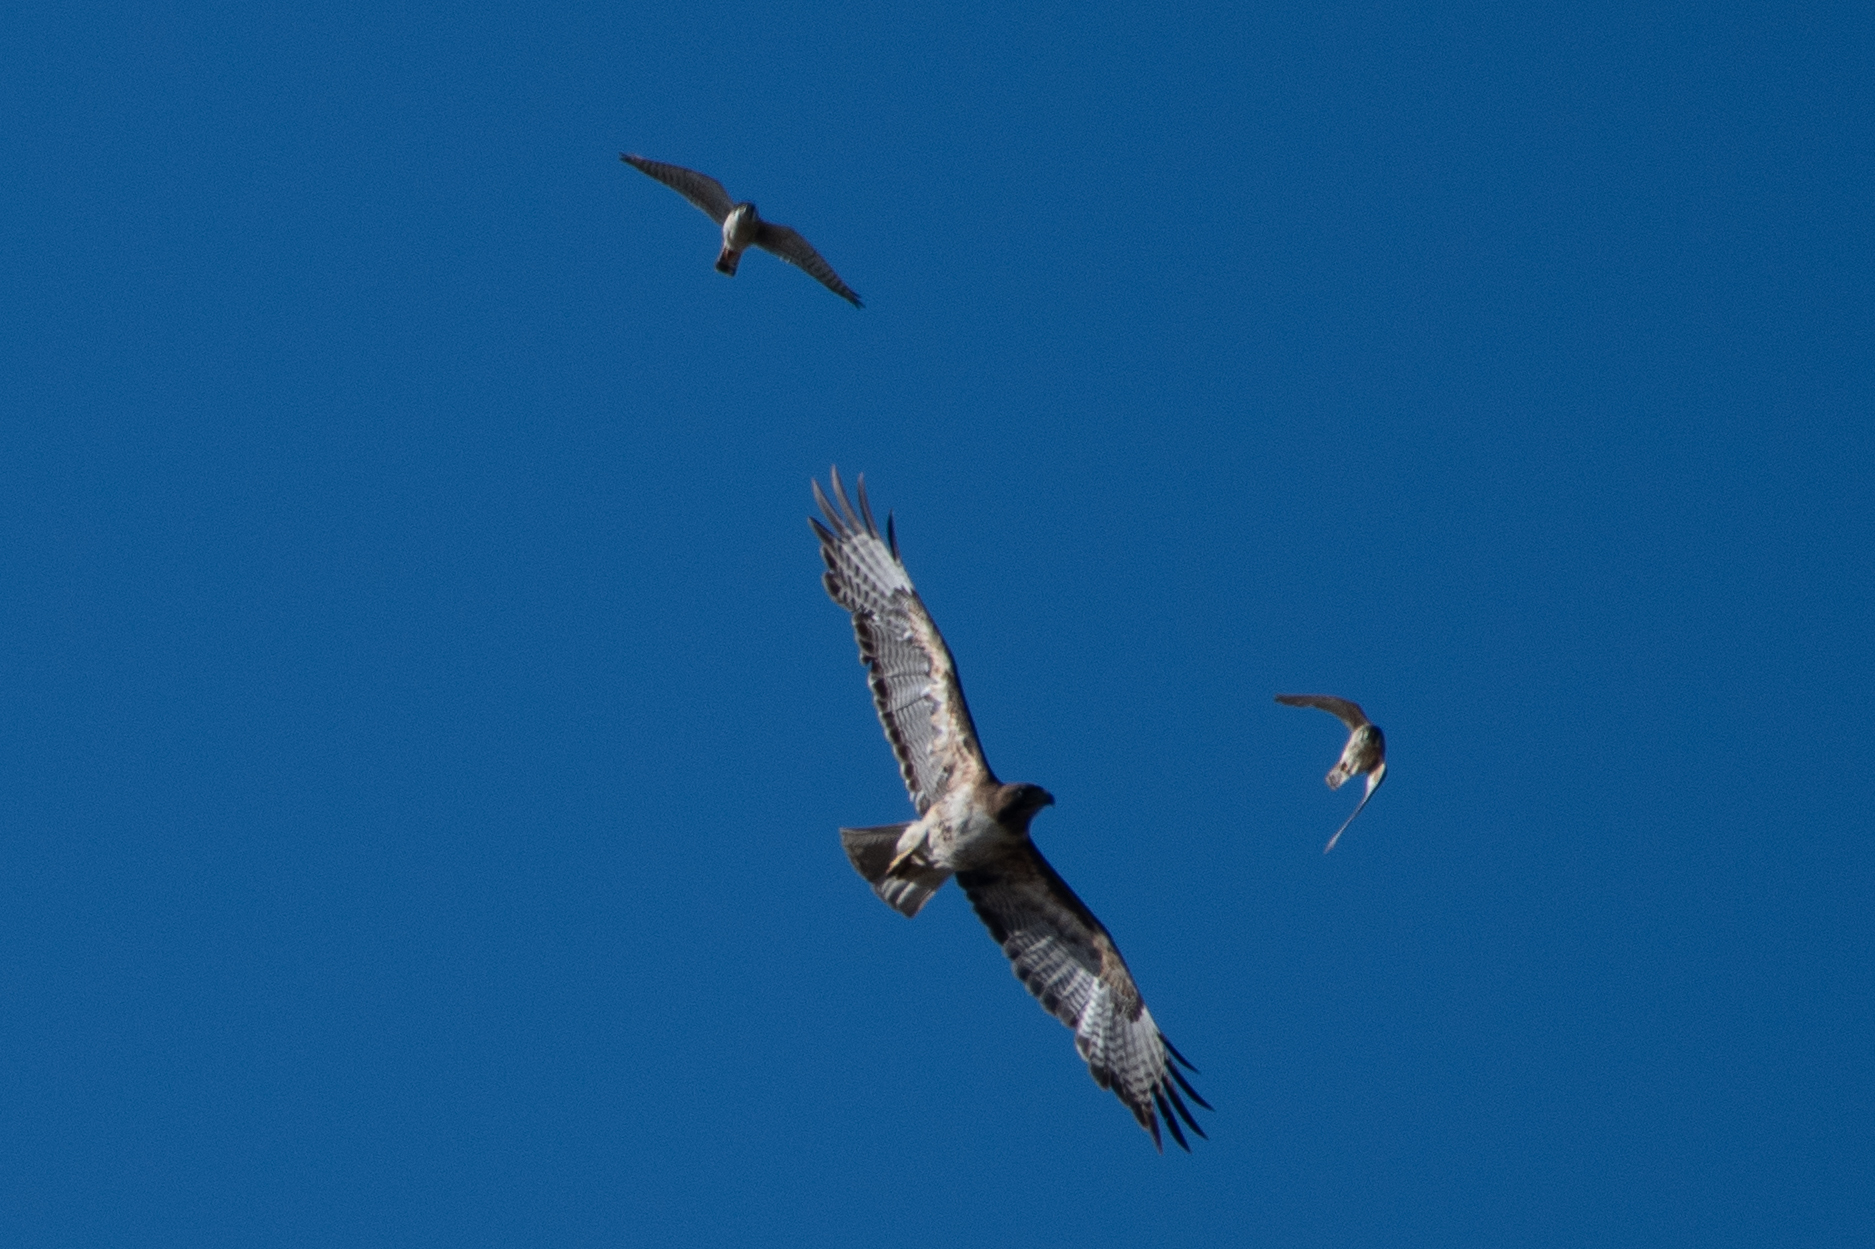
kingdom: Animalia
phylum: Chordata
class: Aves
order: Accipitriformes
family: Accipitridae
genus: Buteo
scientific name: Buteo jamaicensis
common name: Red-tailed hawk
